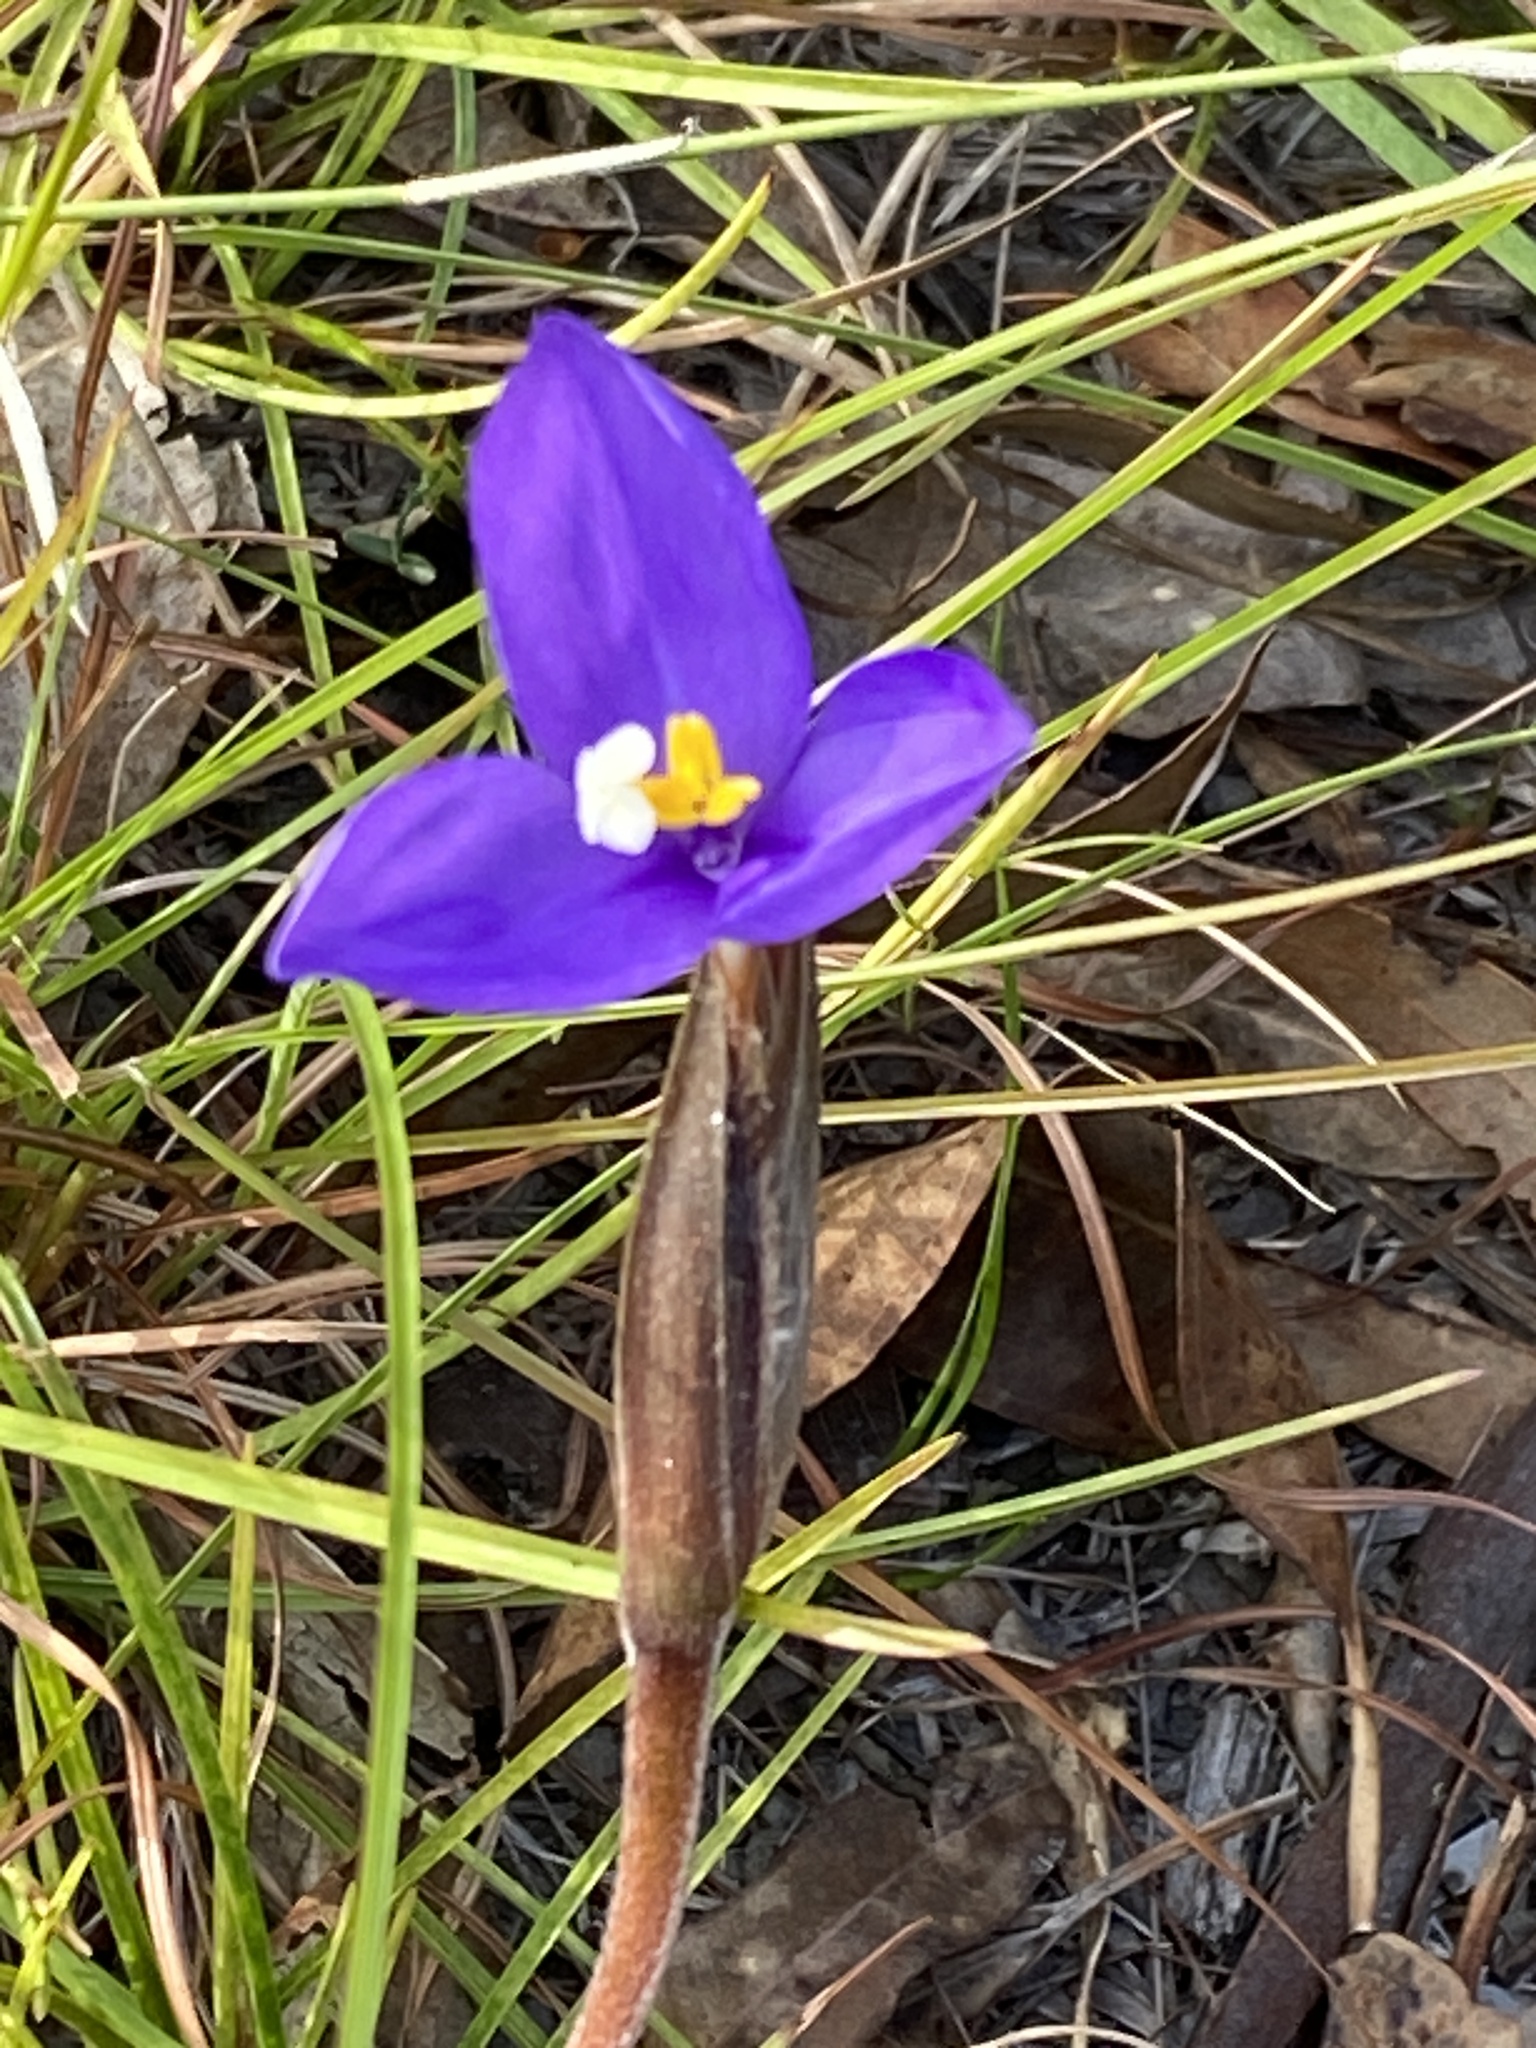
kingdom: Plantae
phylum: Tracheophyta
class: Liliopsida
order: Asparagales
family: Iridaceae
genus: Patersonia
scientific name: Patersonia sericea
